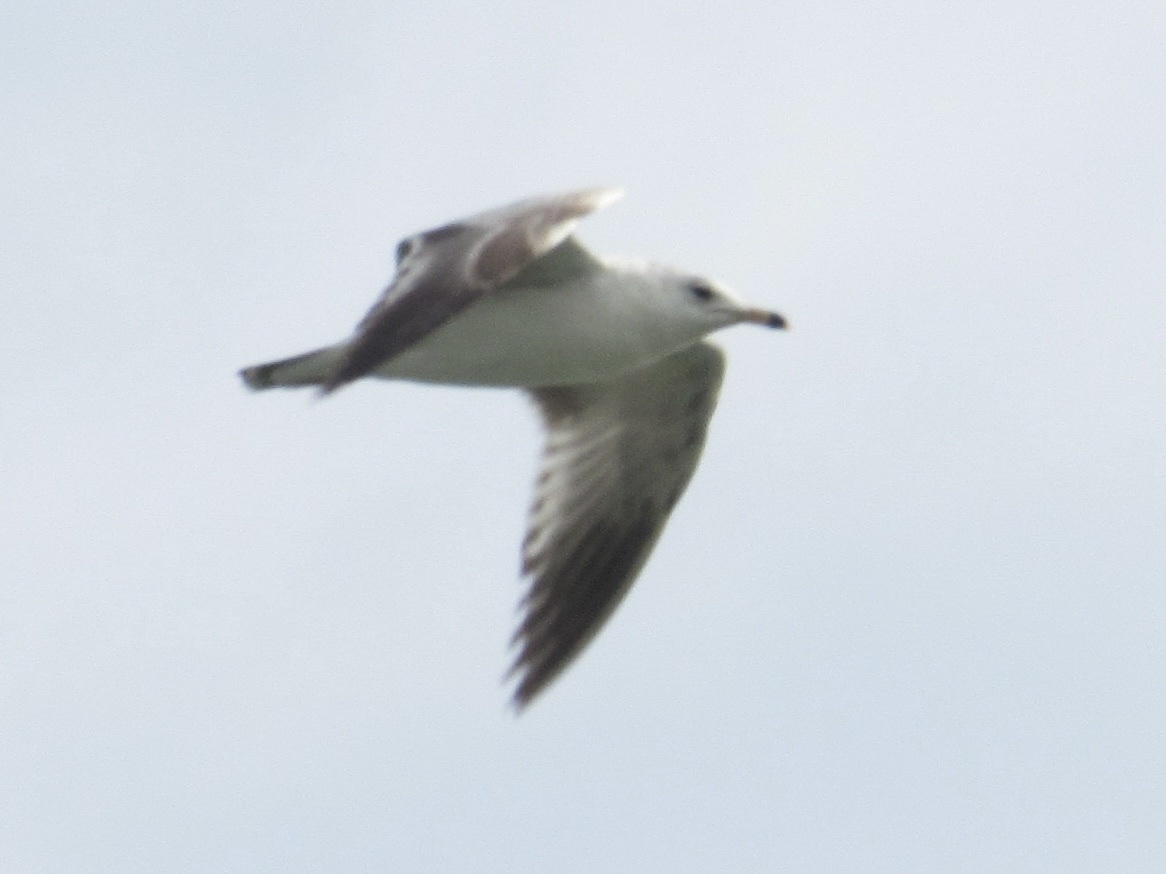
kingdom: Animalia
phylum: Chordata
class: Aves
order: Charadriiformes
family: Laridae
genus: Larus
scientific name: Larus delawarensis
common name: Ring-billed gull
